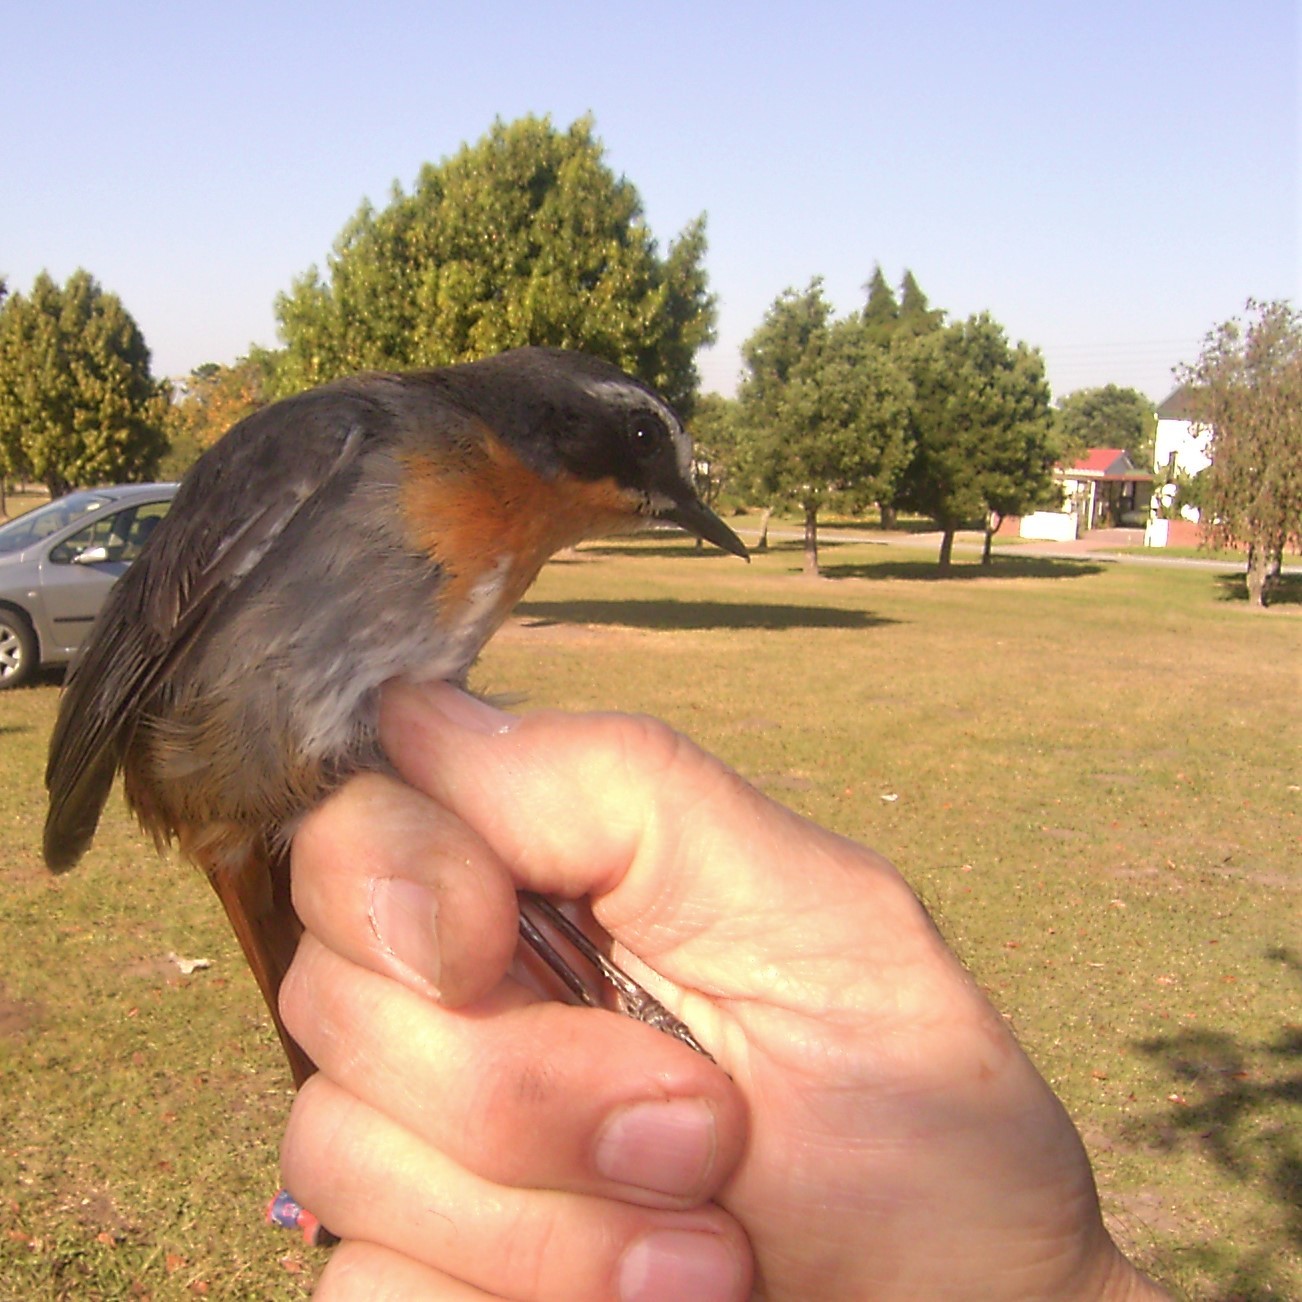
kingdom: Animalia
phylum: Chordata
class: Aves
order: Passeriformes
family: Muscicapidae
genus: Cossypha
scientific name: Cossypha caffra
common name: Cape robin-chat
